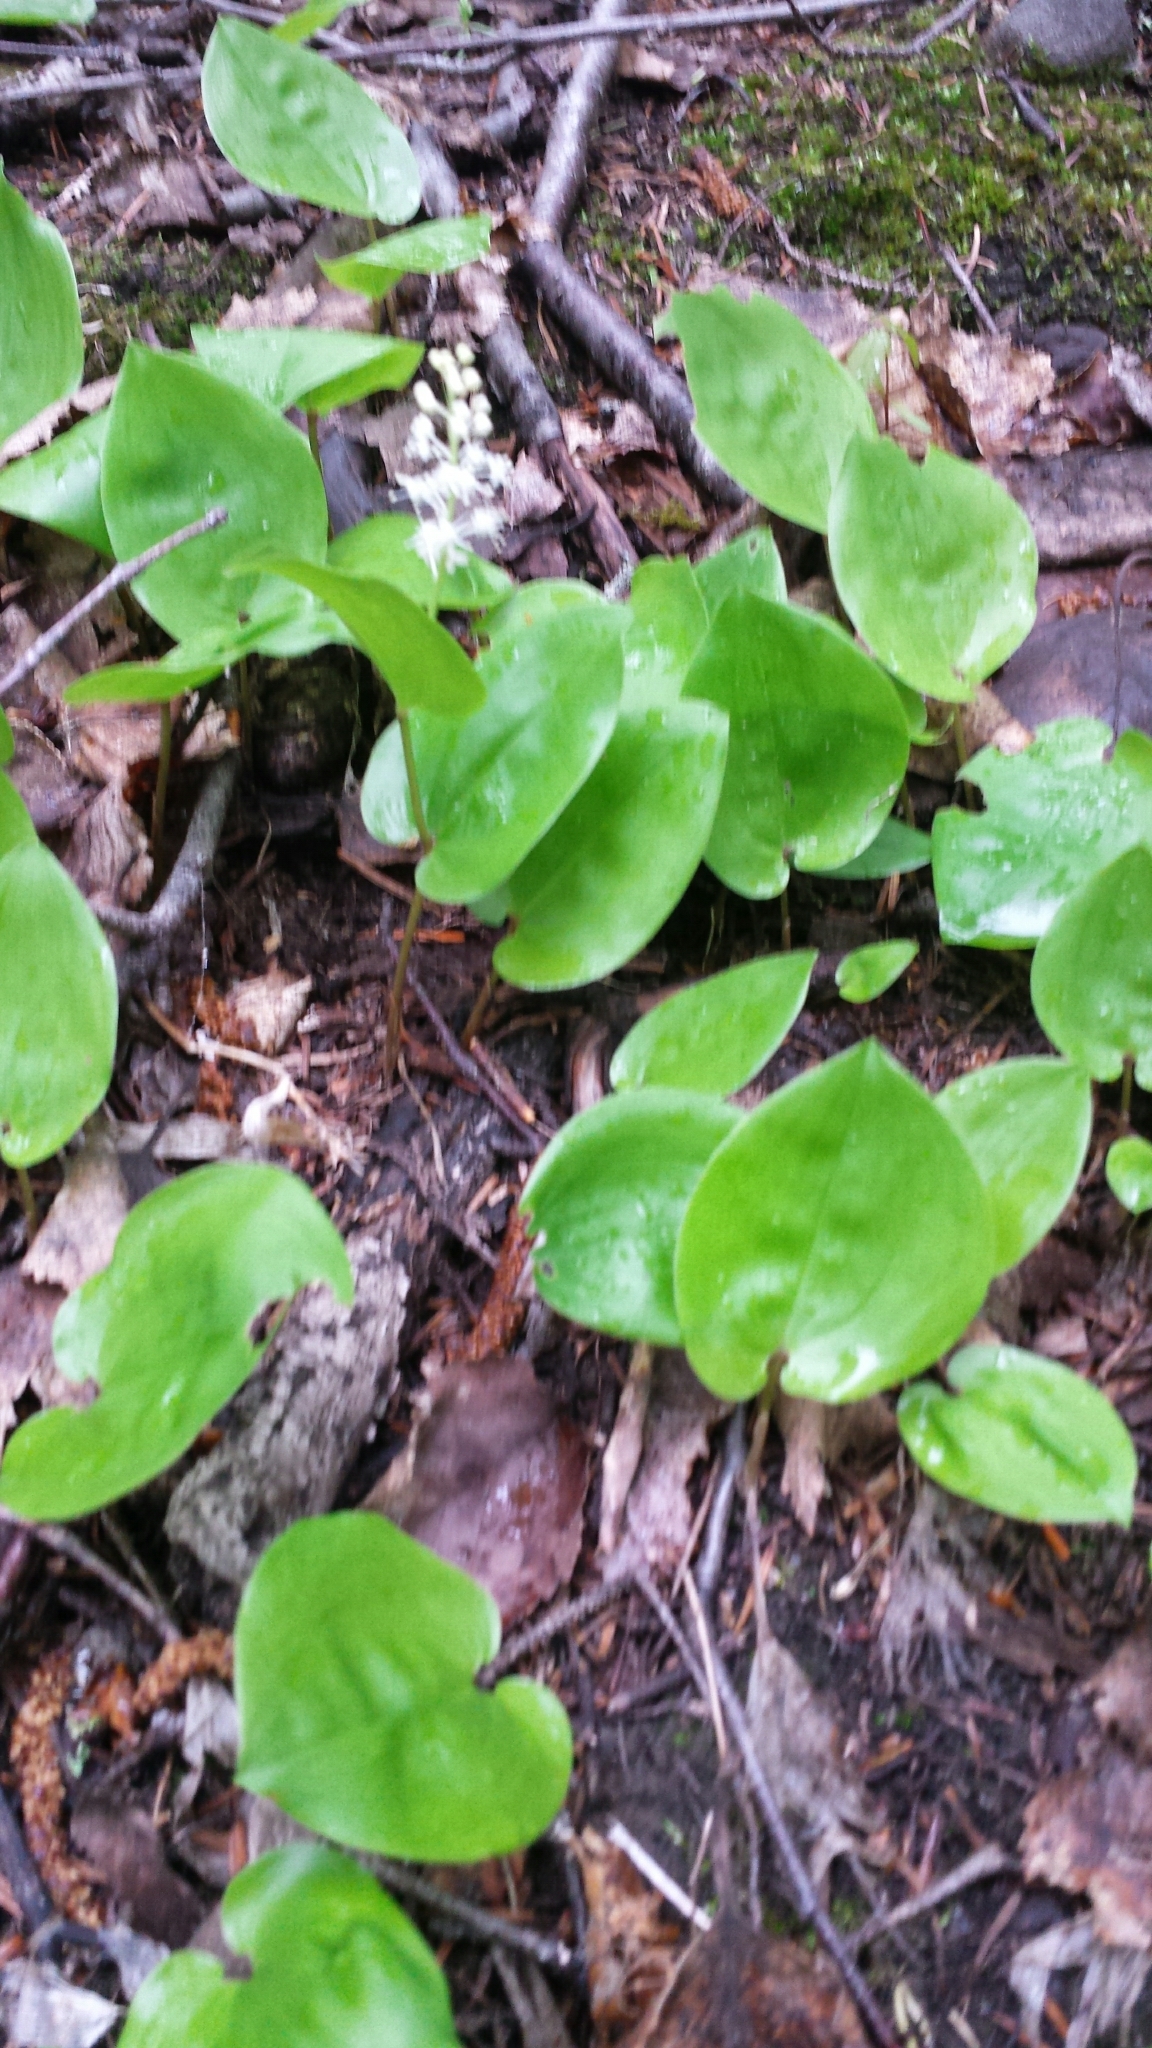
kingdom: Plantae
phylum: Tracheophyta
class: Liliopsida
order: Asparagales
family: Asparagaceae
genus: Maianthemum
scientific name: Maianthemum canadense
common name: False lily-of-the-valley
